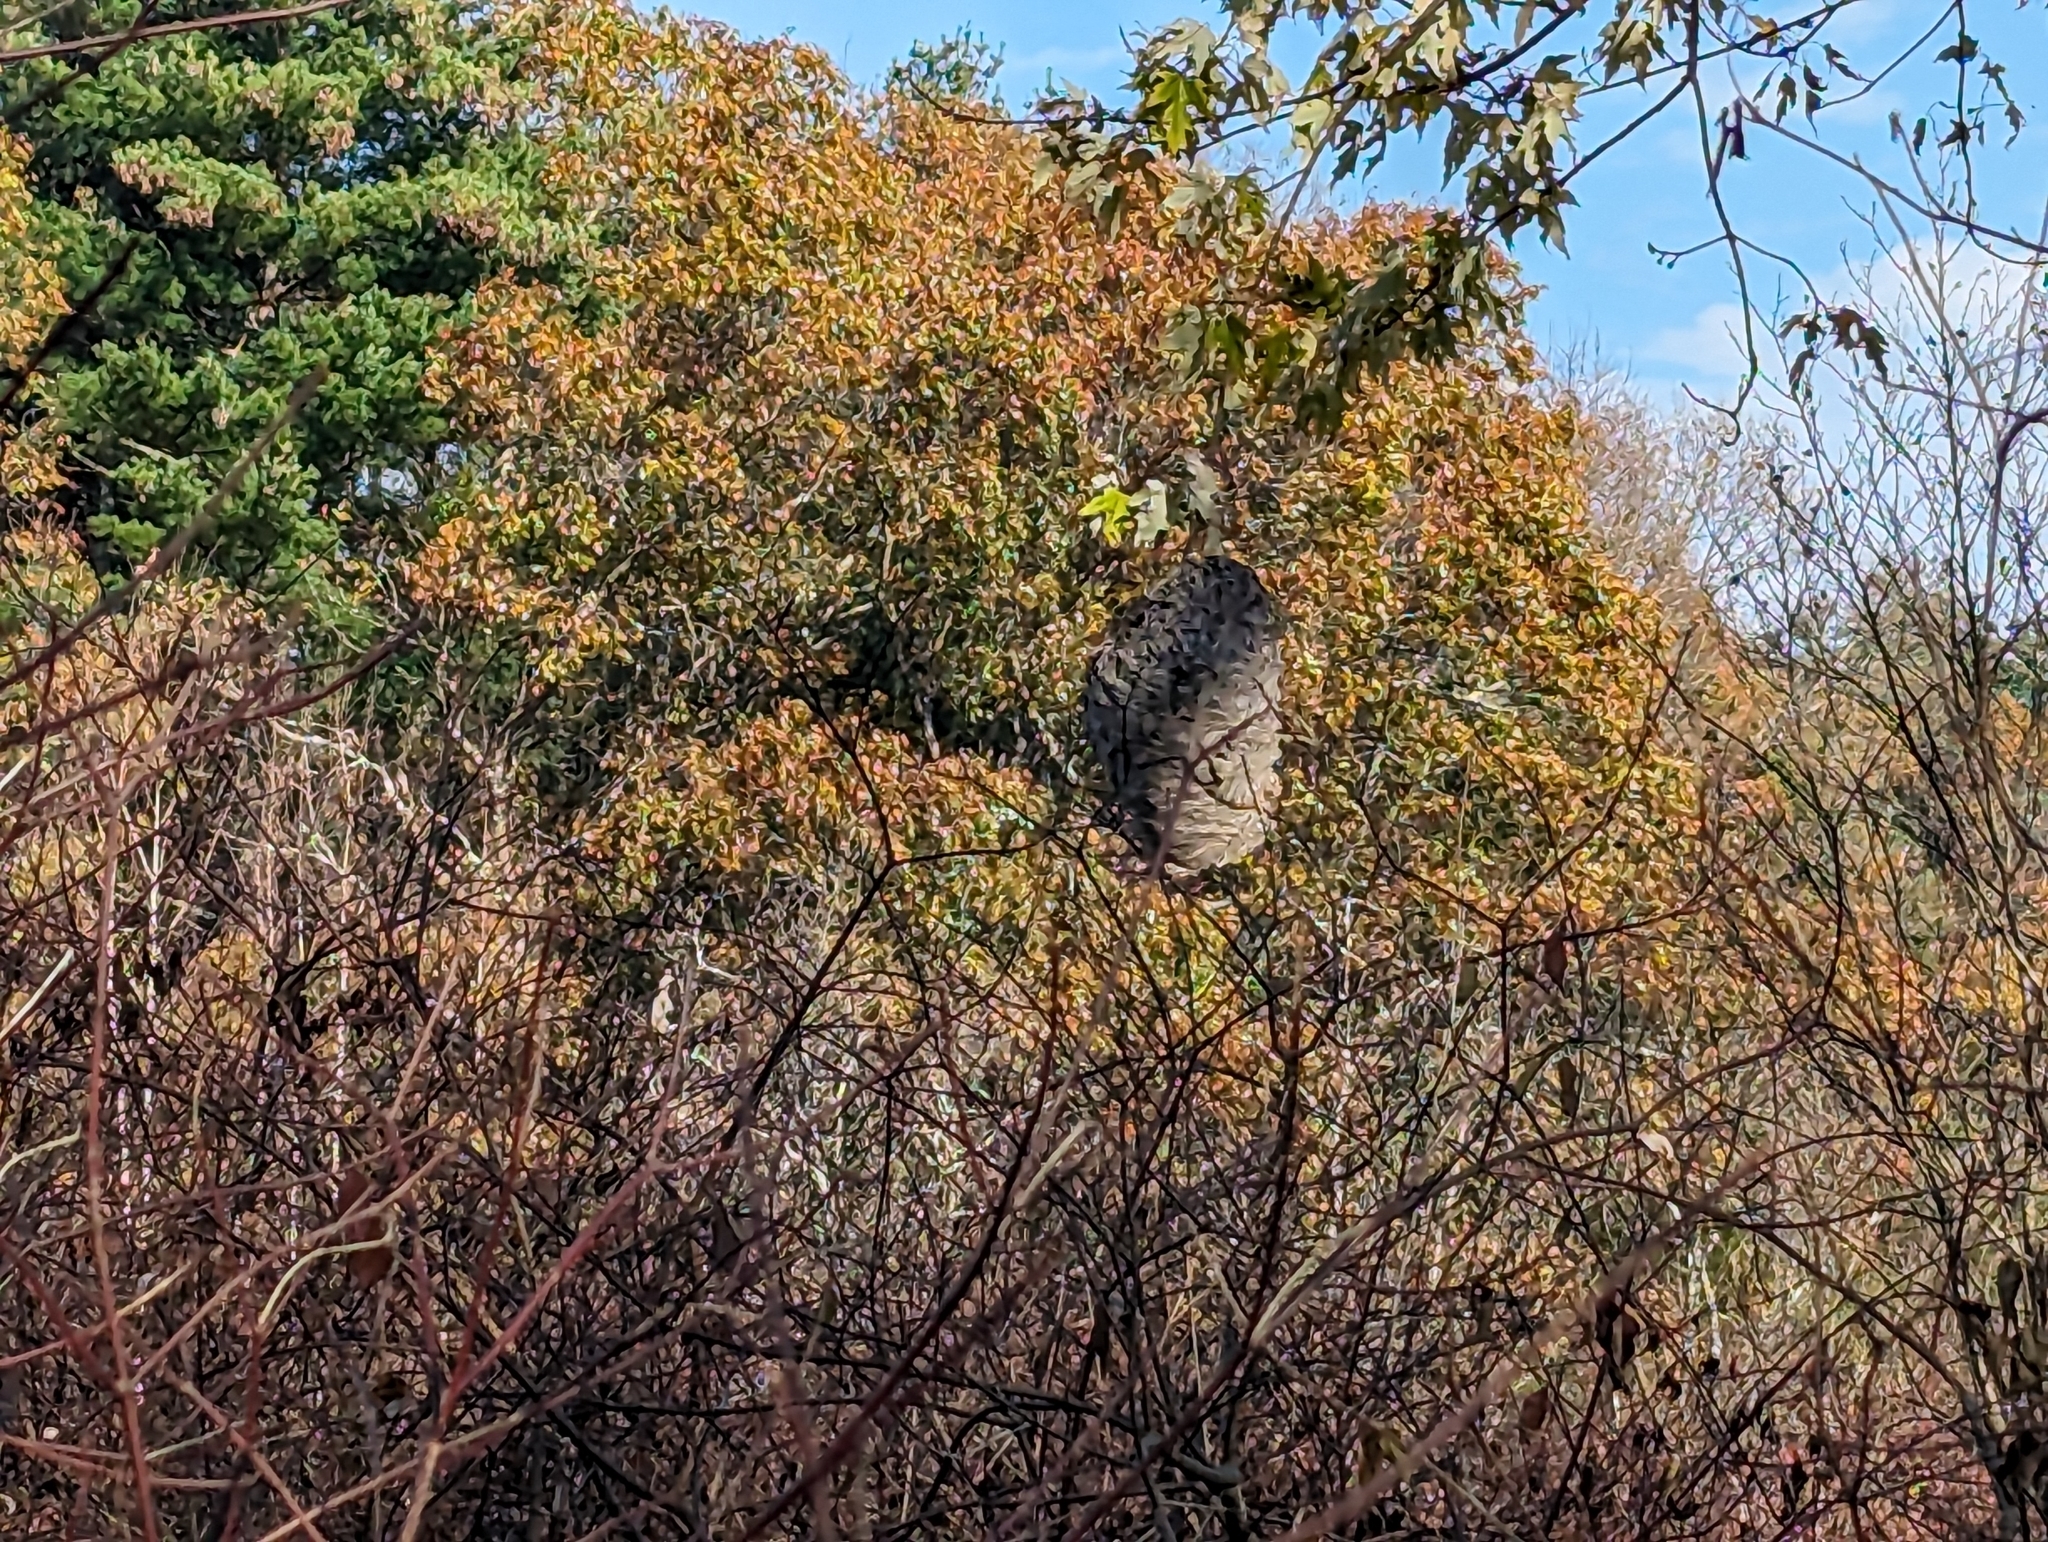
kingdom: Animalia
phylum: Arthropoda
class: Insecta
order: Hymenoptera
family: Vespidae
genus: Dolichovespula
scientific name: Dolichovespula
